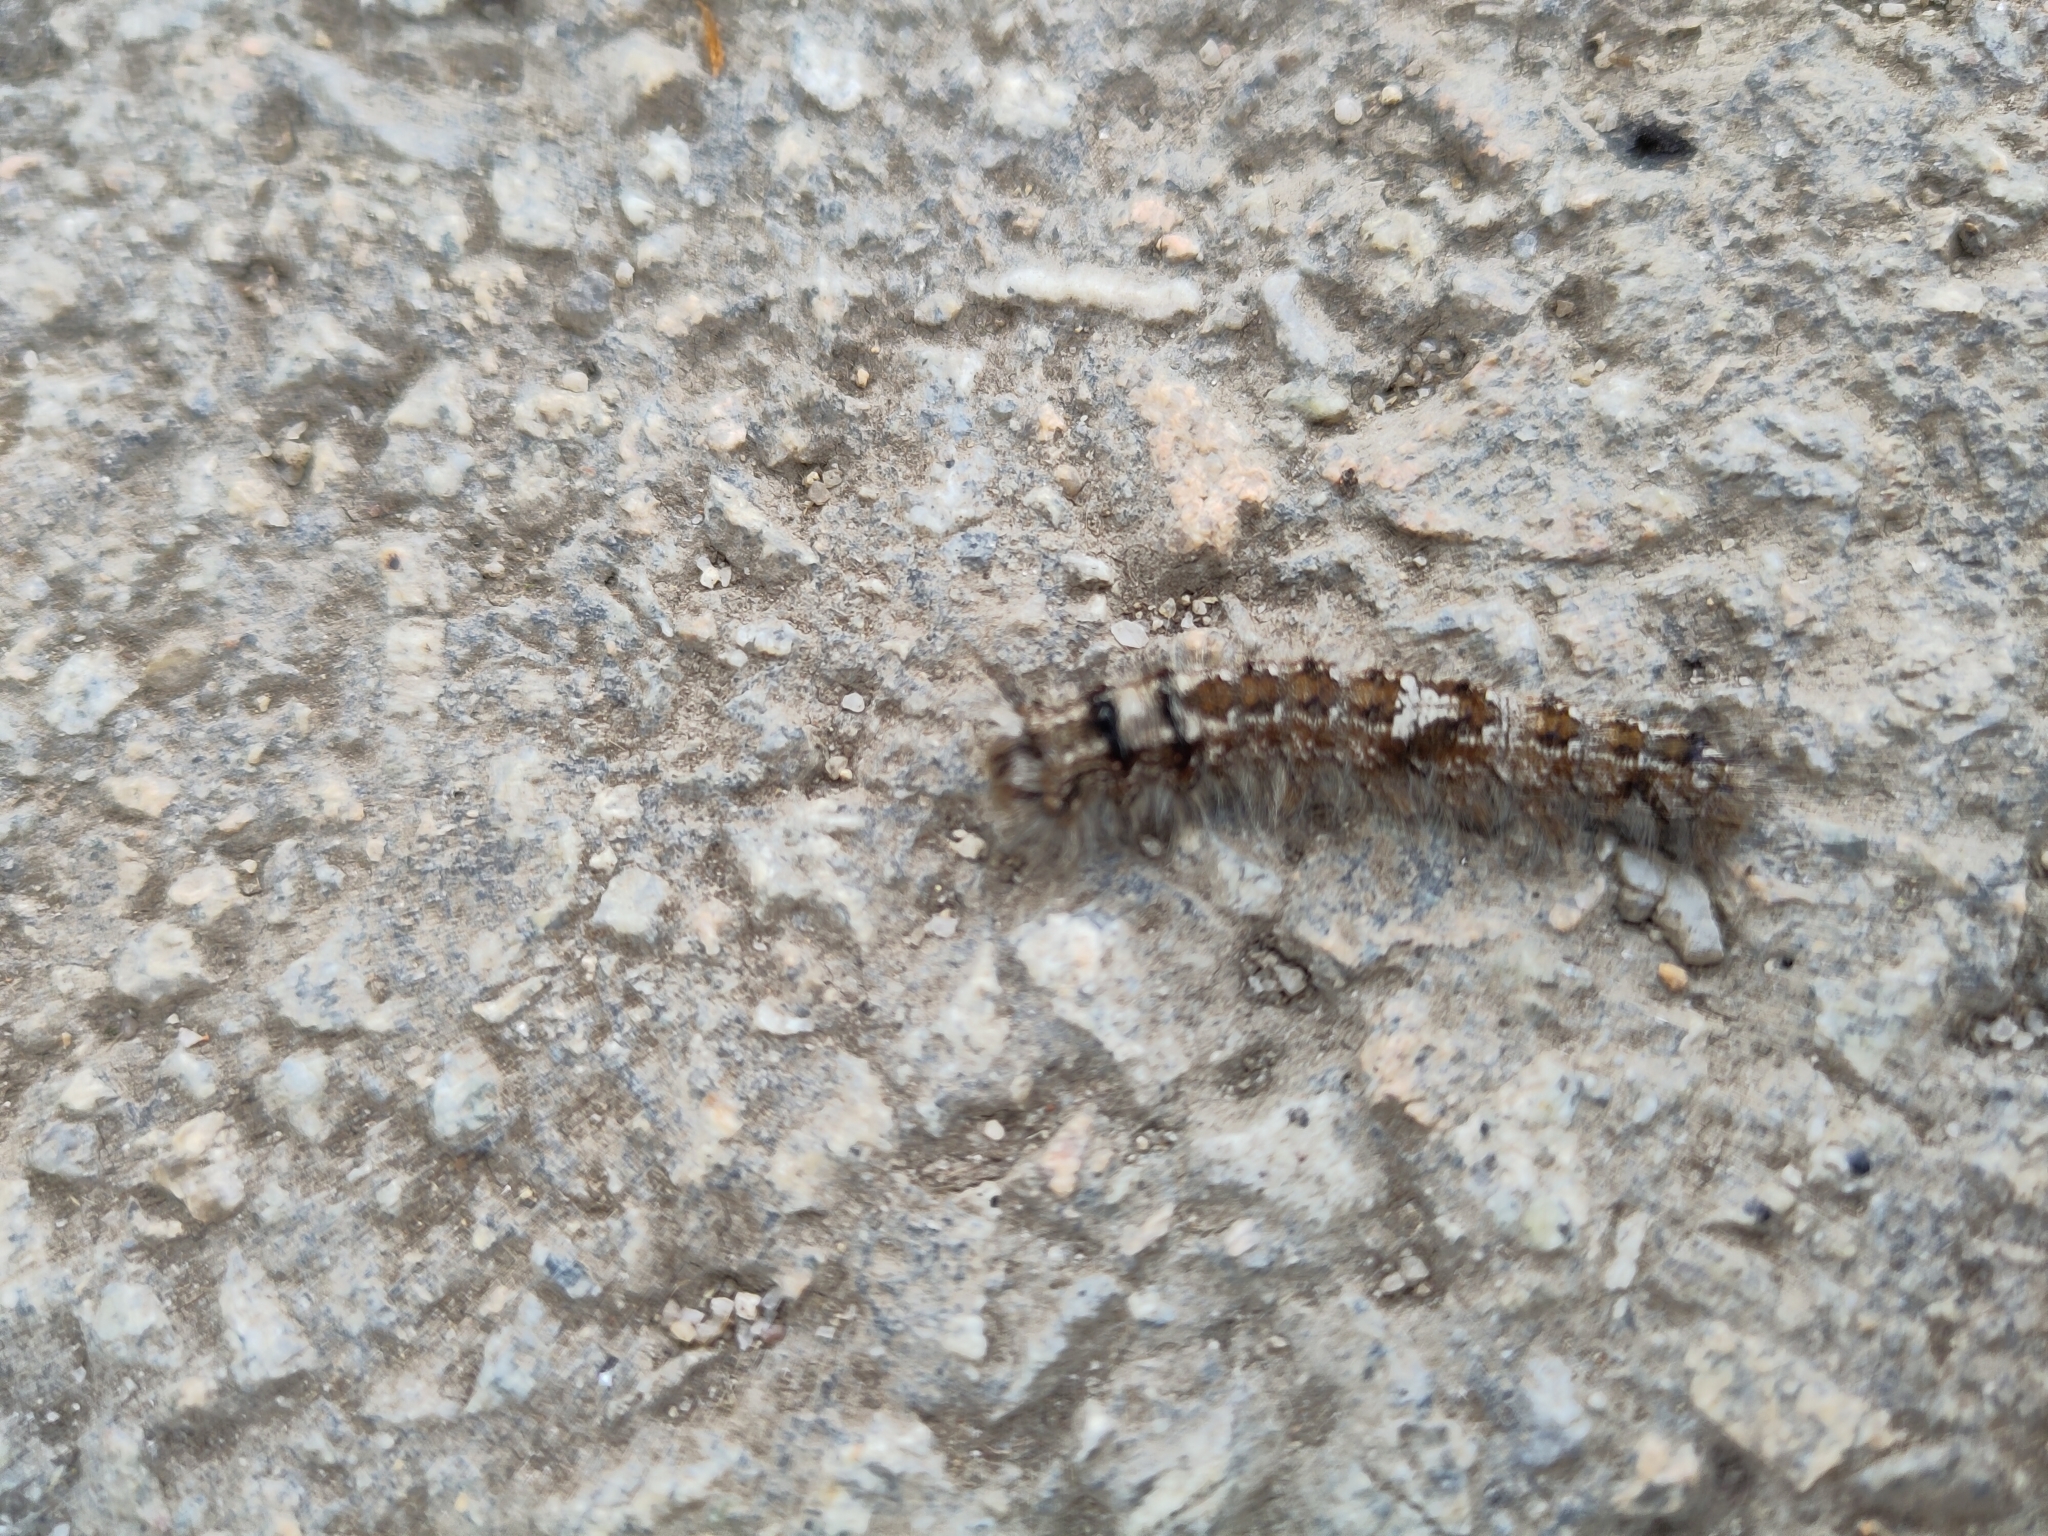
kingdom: Animalia
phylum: Arthropoda
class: Insecta
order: Lepidoptera
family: Lasiocampidae
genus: Dendrolimus
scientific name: Dendrolimus pini
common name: Pine-tree lappet
